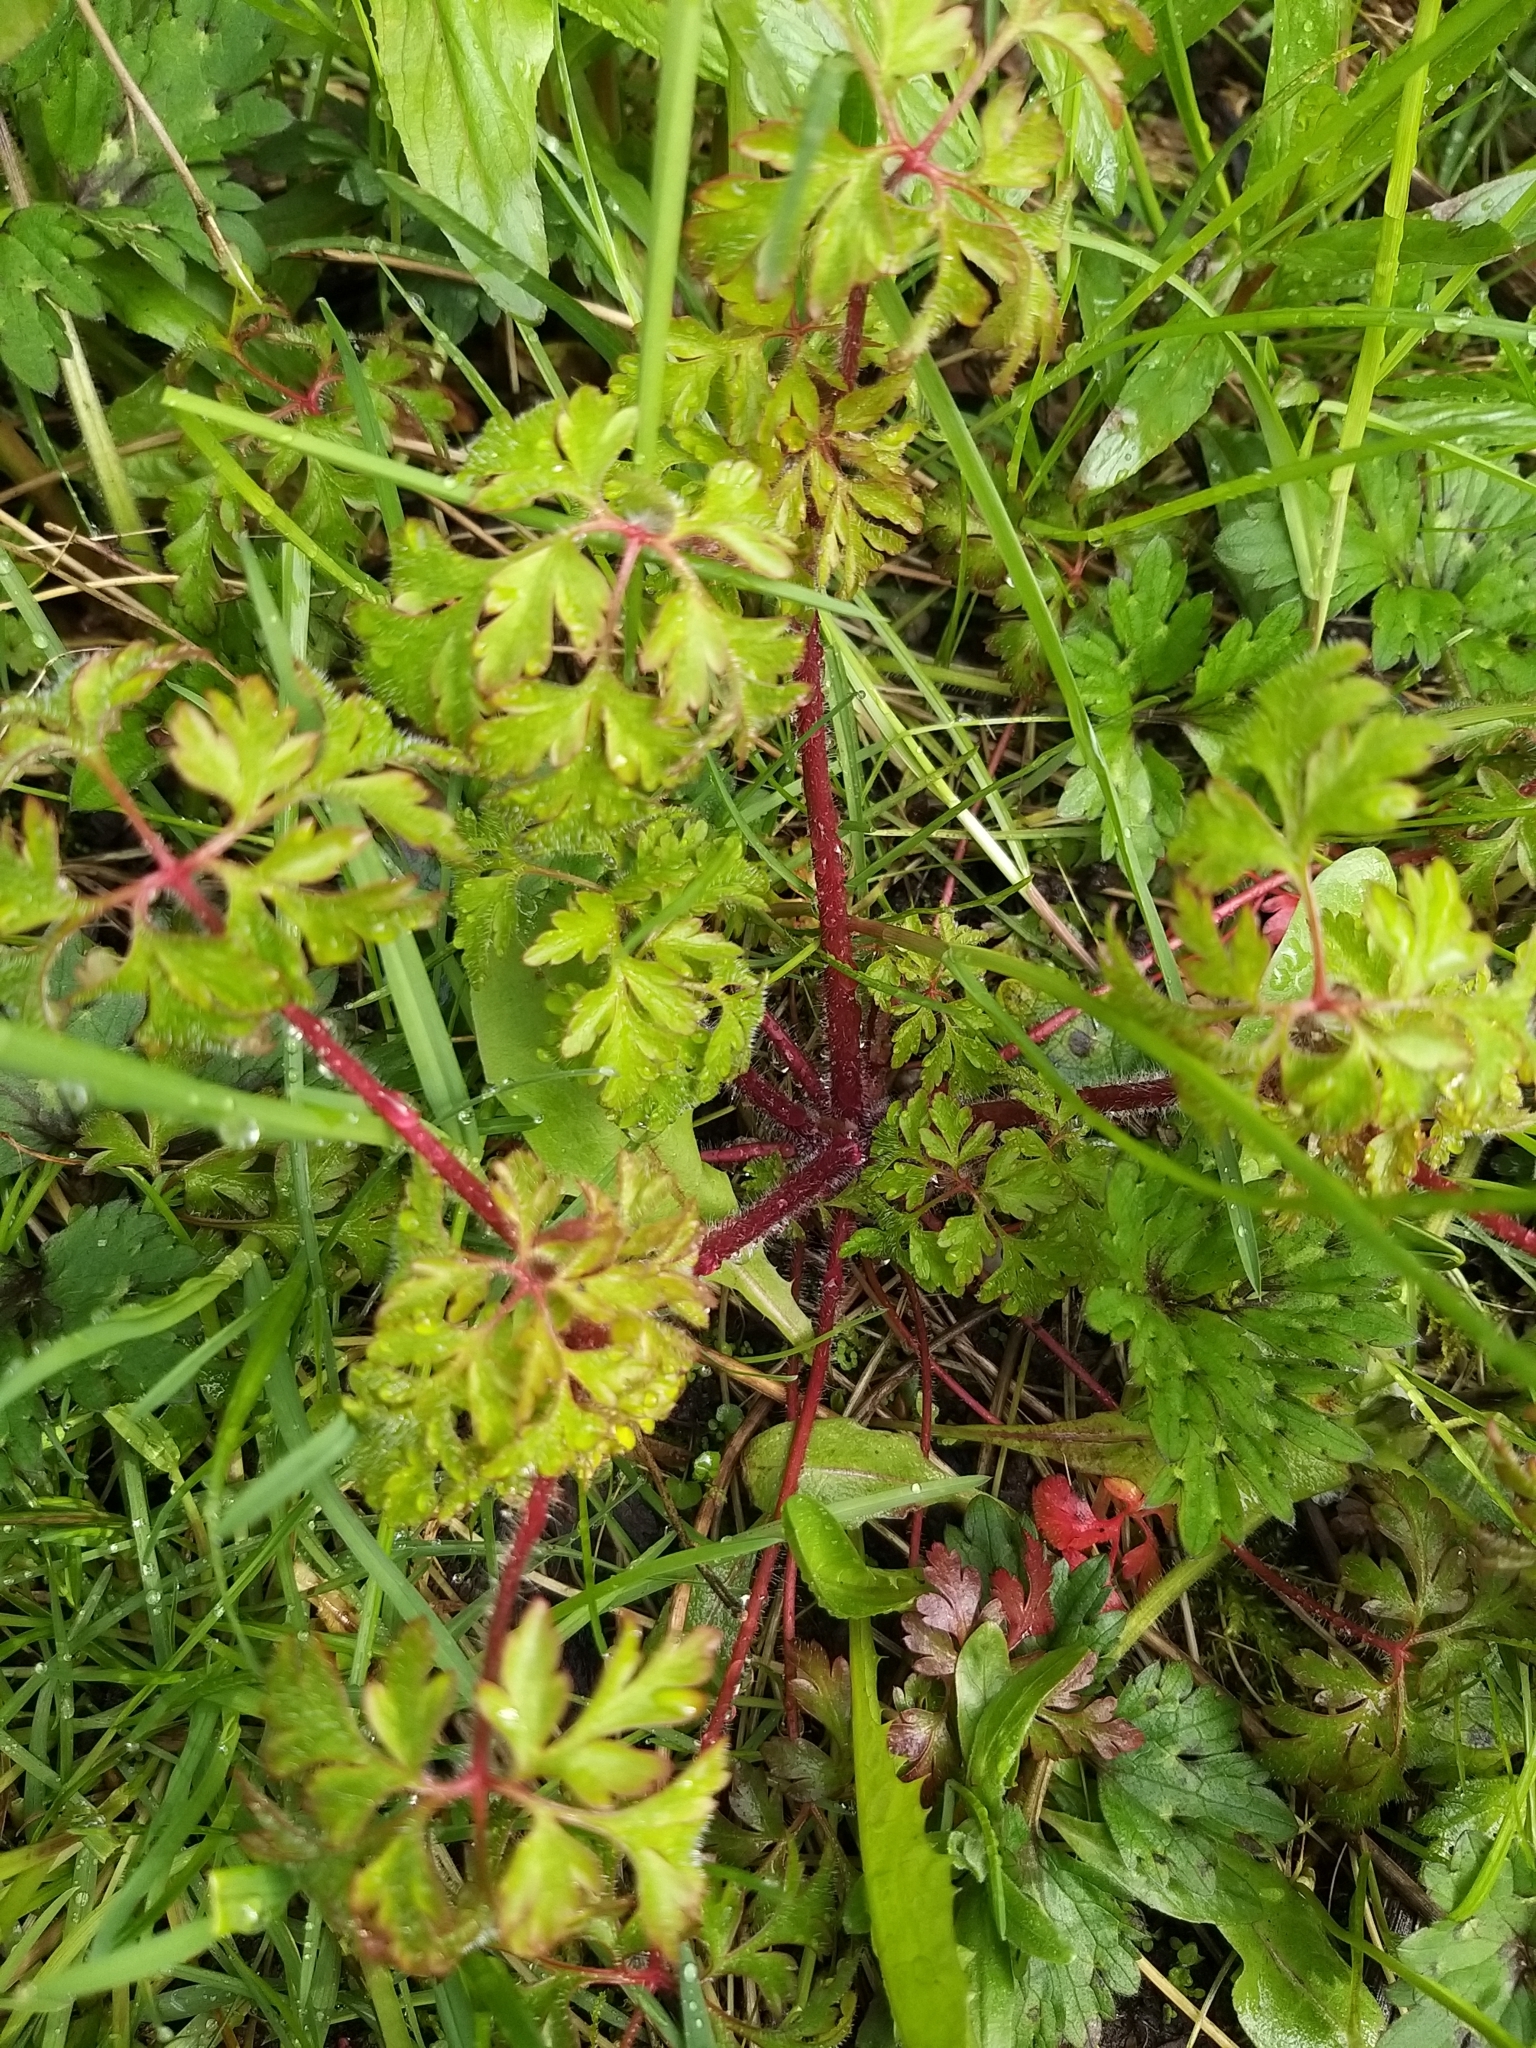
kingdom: Plantae
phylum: Tracheophyta
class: Magnoliopsida
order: Geraniales
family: Geraniaceae
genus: Geranium
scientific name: Geranium robertianum
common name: Herb-robert
